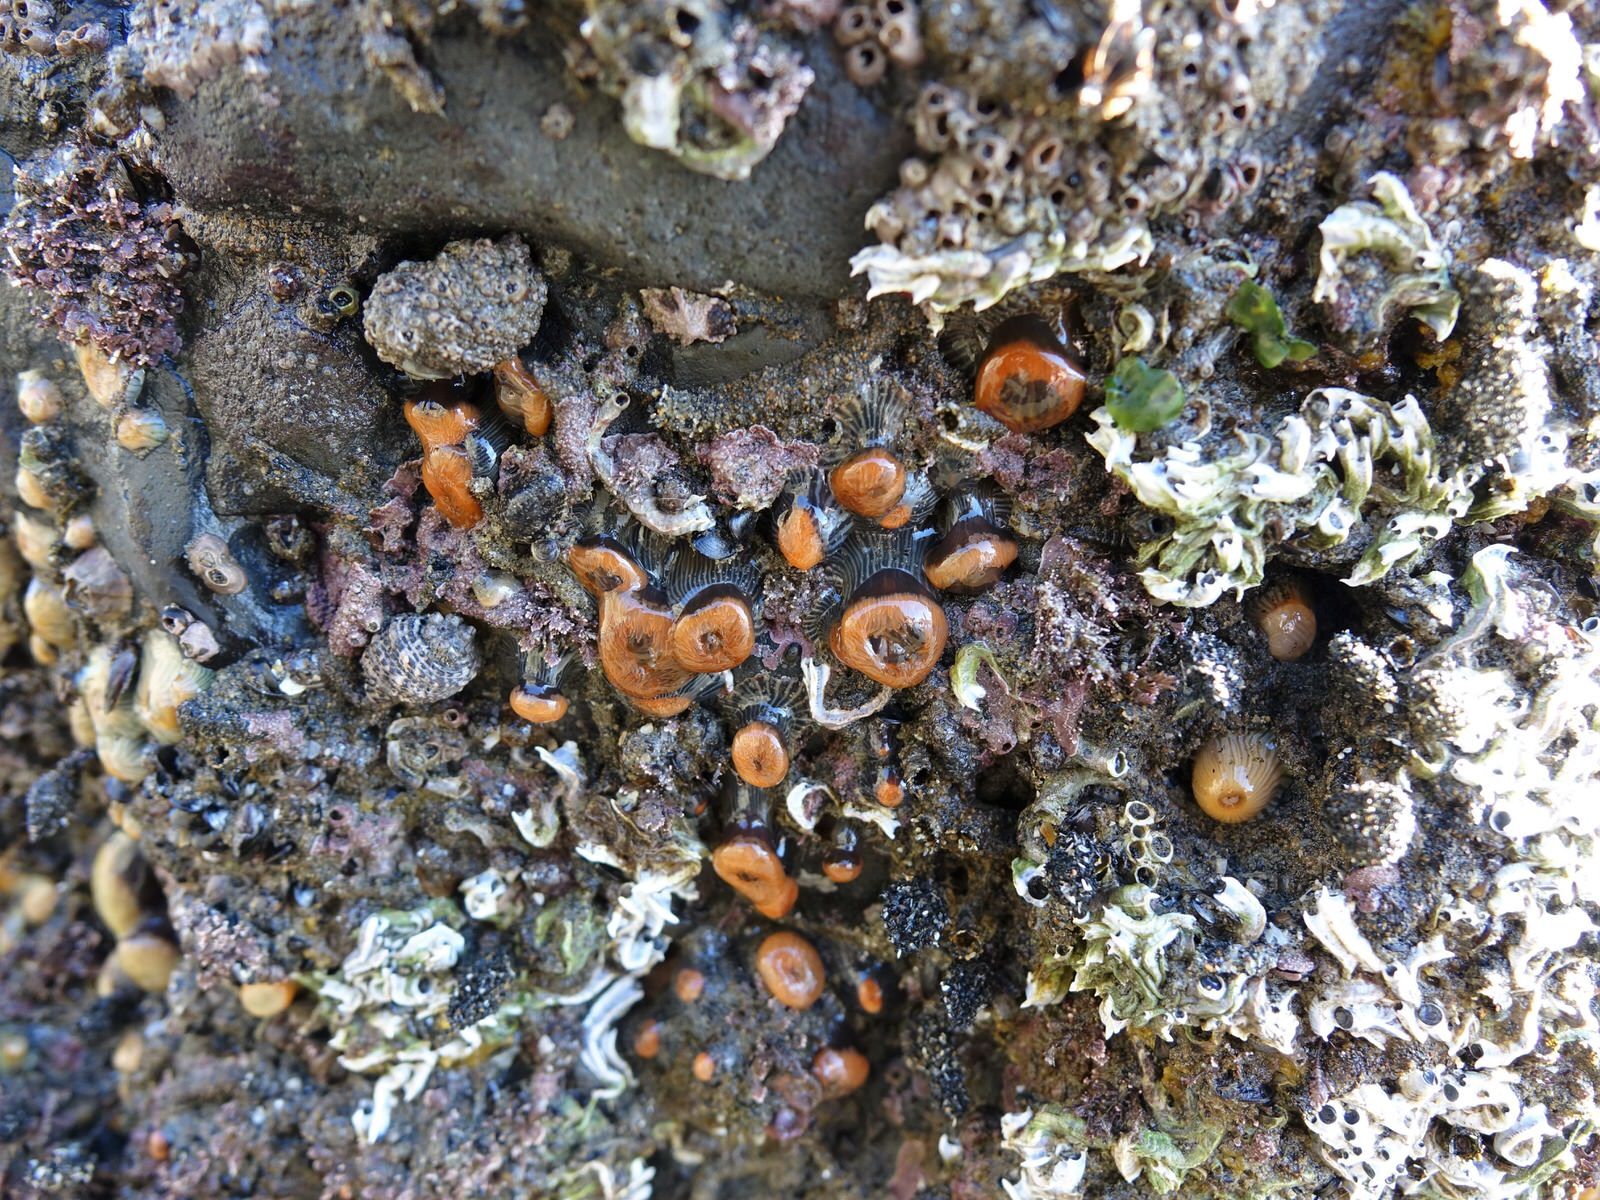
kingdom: Animalia
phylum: Cnidaria
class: Anthozoa
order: Actiniaria
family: Diadumenidae
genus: Diadumene
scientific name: Diadumene neozelanica
